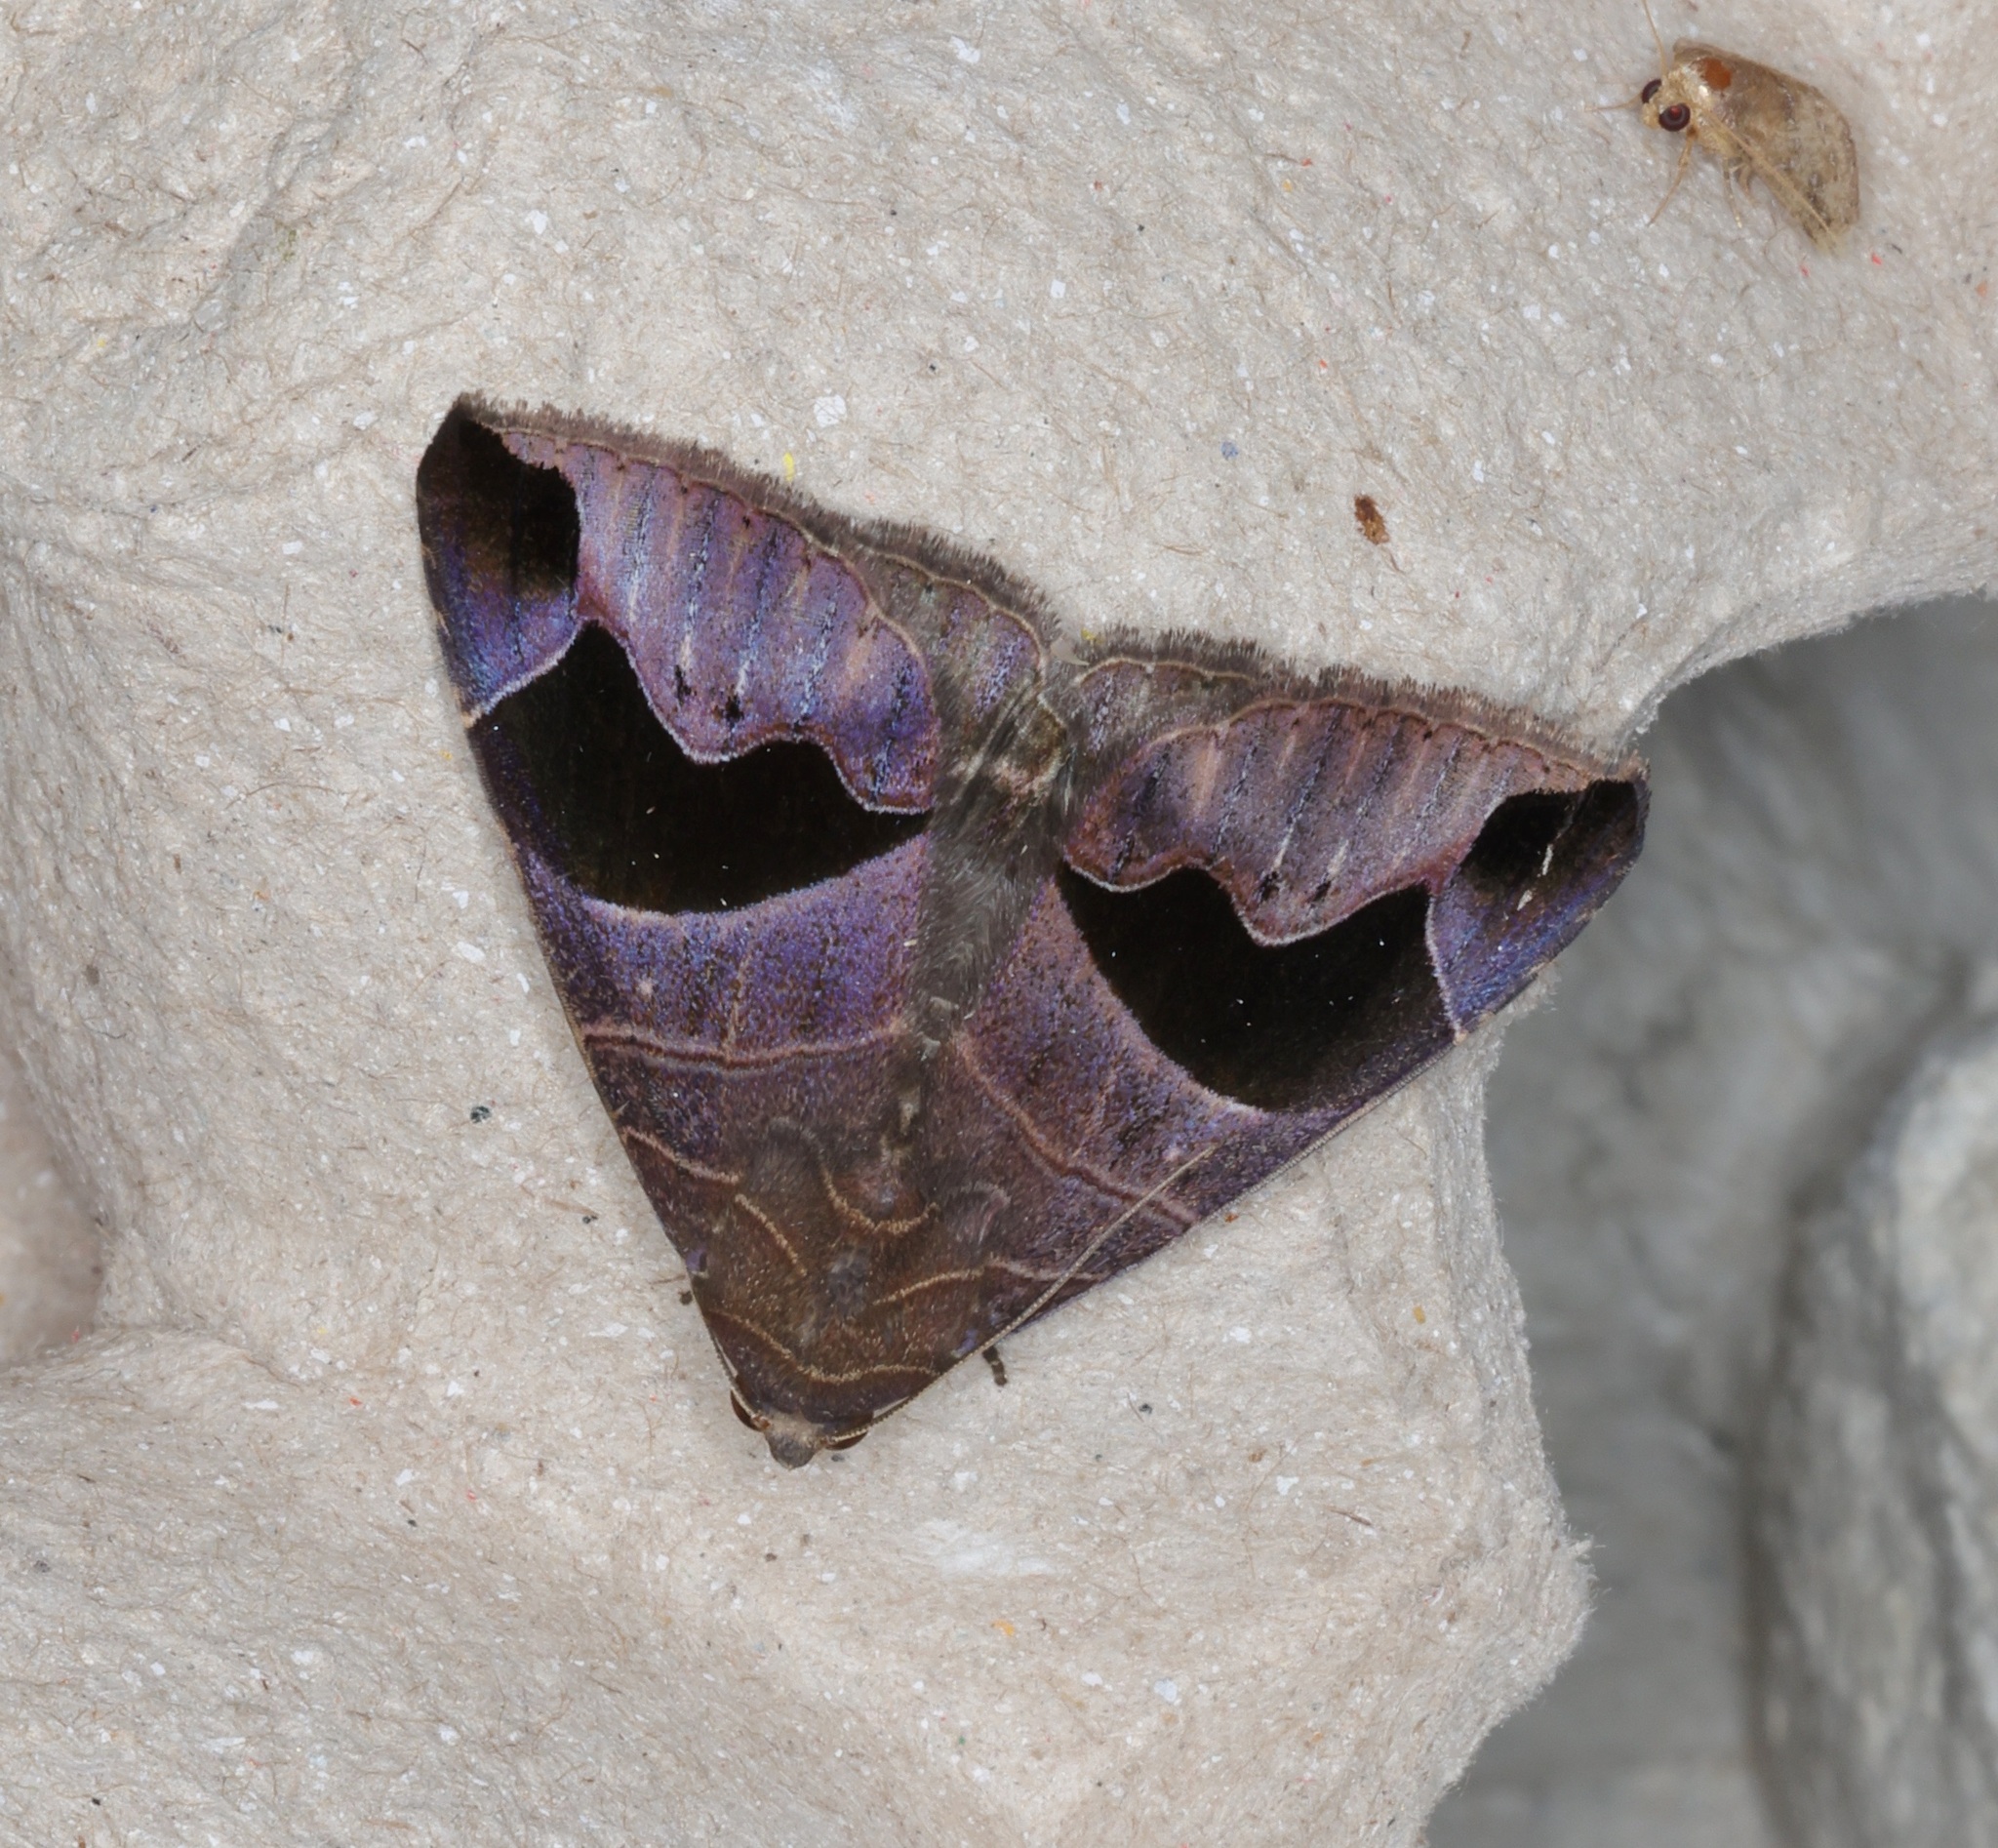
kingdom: Animalia
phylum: Arthropoda
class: Insecta
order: Lepidoptera
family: Erebidae
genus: Bastilla
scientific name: Bastilla joviana
